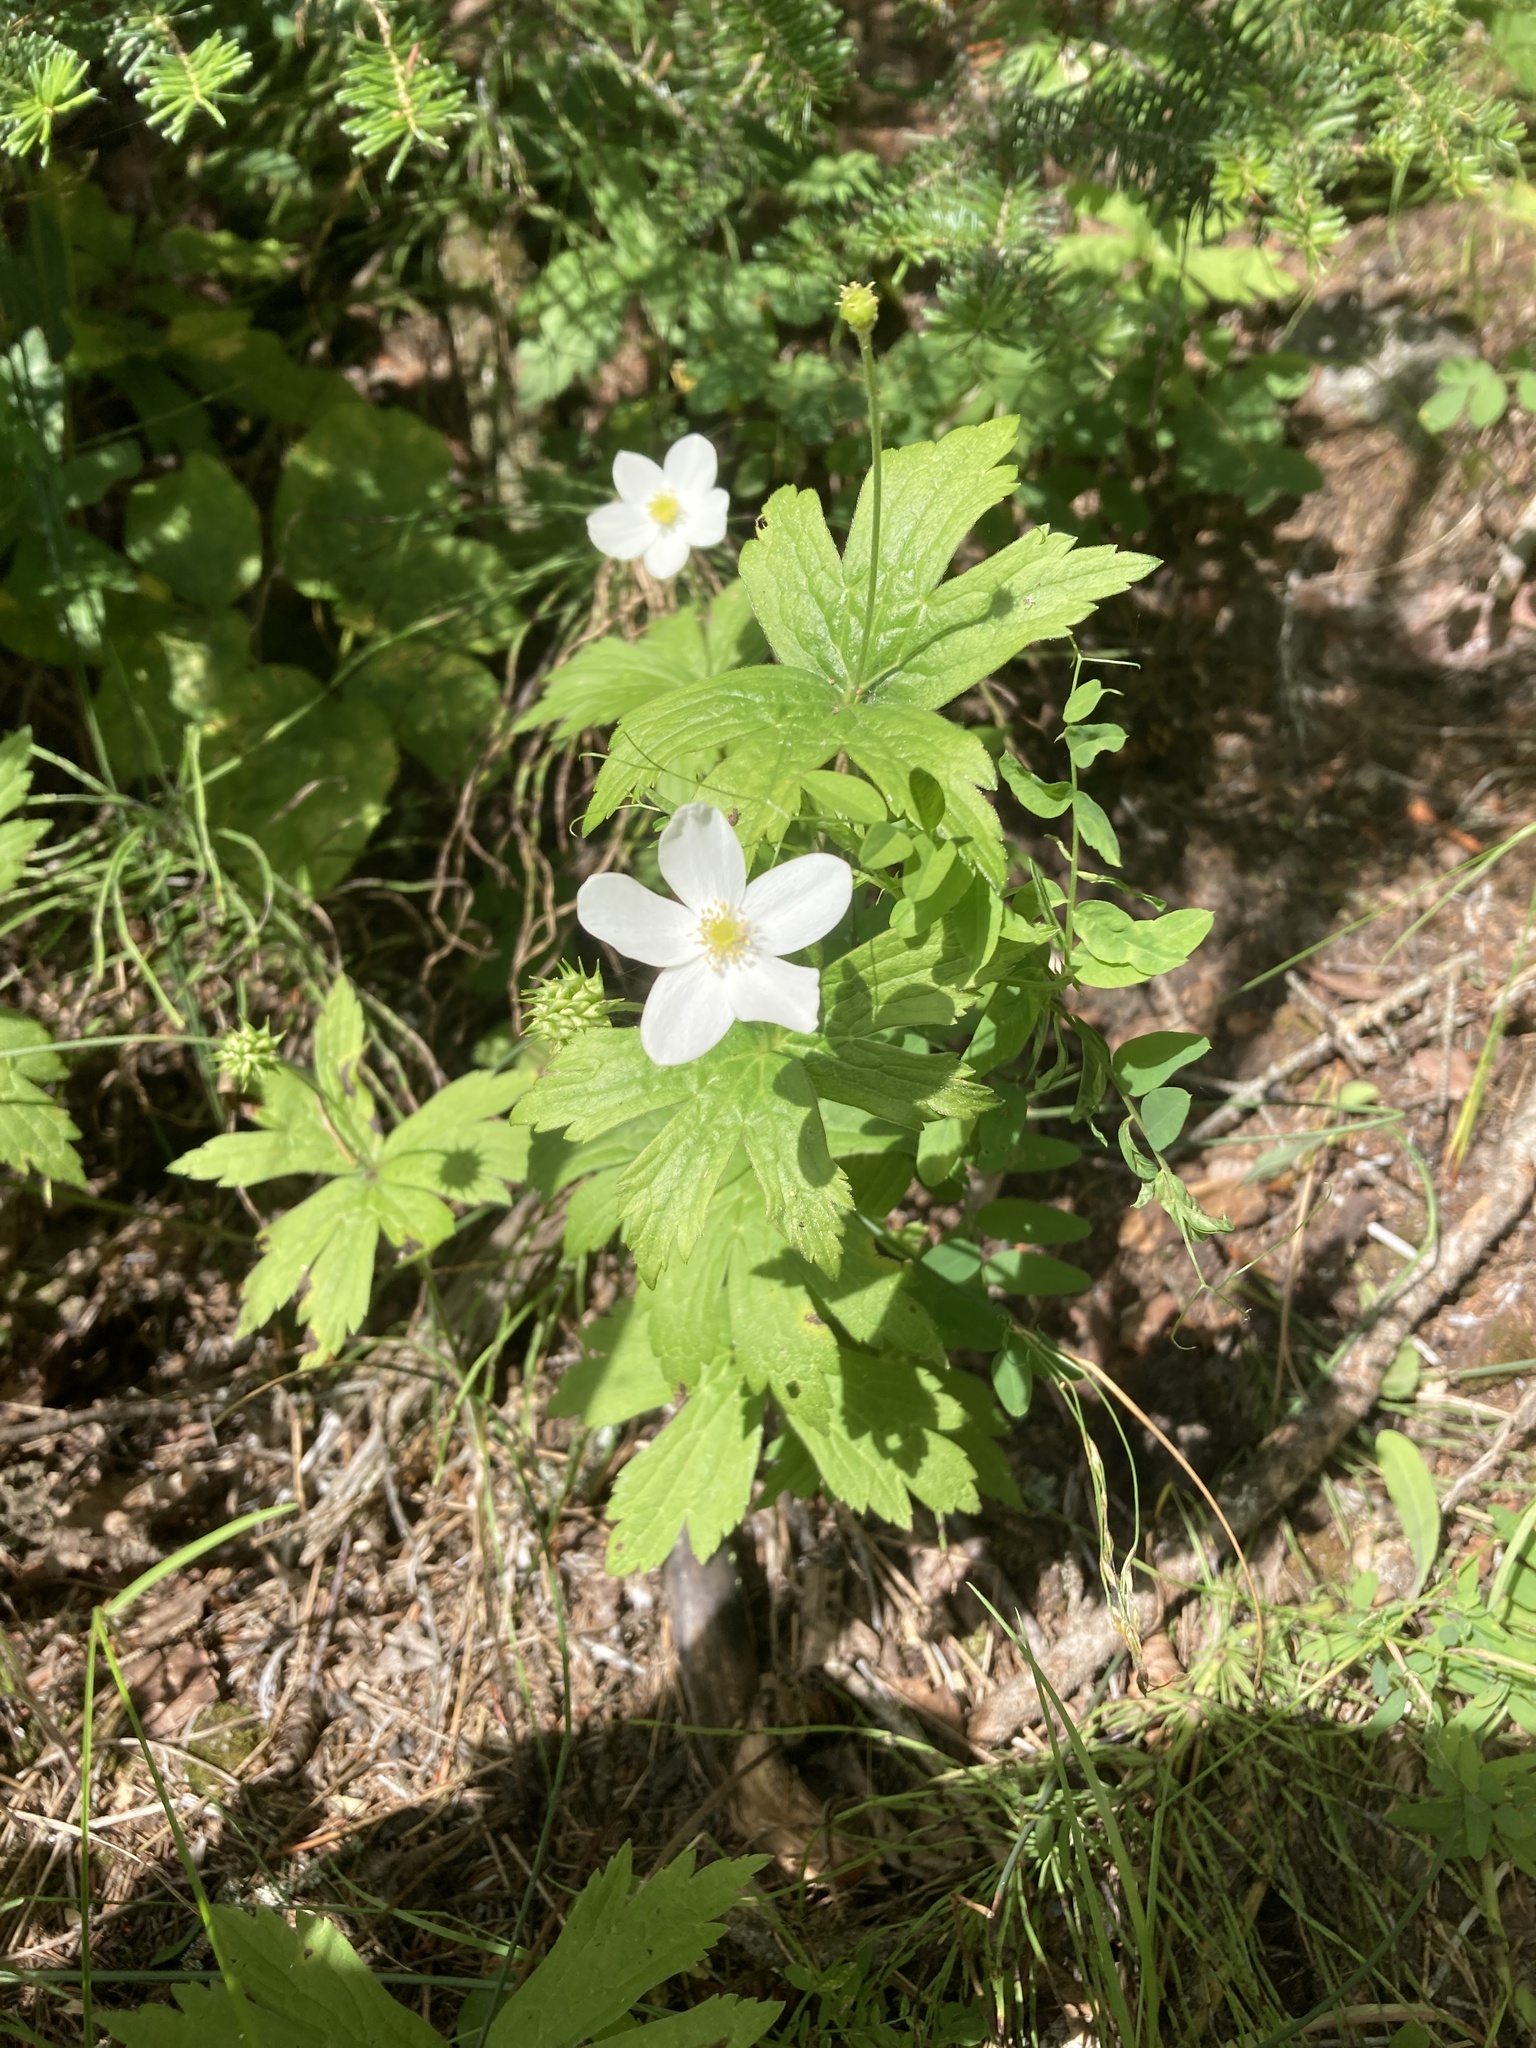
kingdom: Plantae
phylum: Tracheophyta
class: Magnoliopsida
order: Ranunculales
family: Ranunculaceae
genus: Anemonastrum
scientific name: Anemonastrum canadense
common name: Canada anemone
